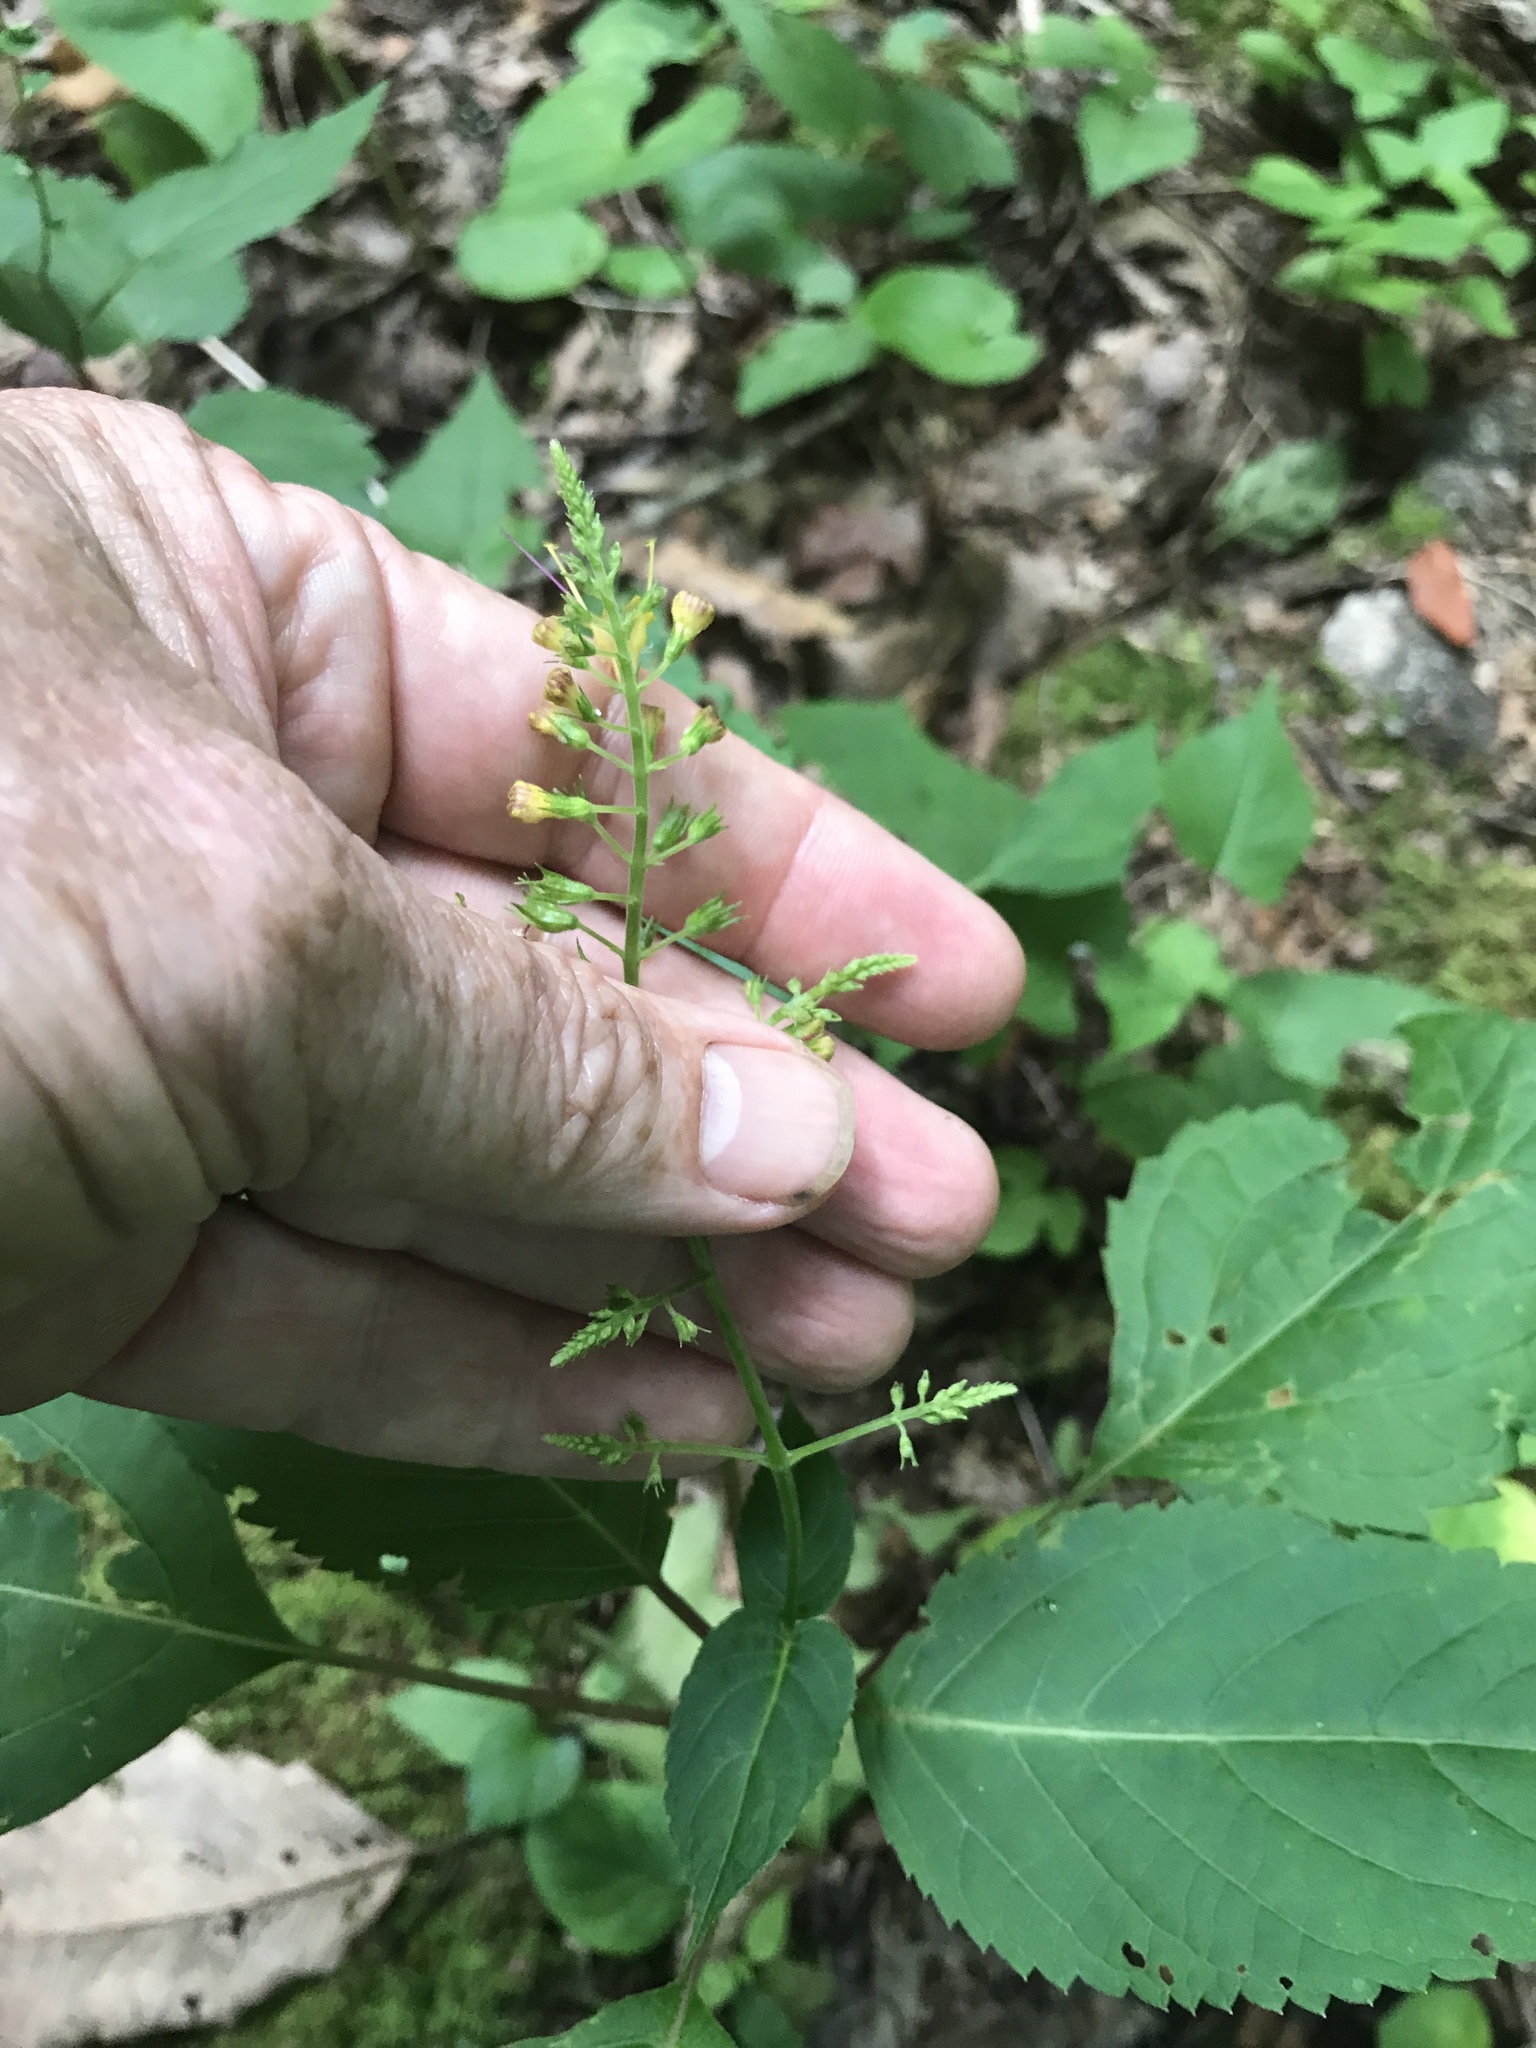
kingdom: Plantae
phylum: Tracheophyta
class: Magnoliopsida
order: Lamiales
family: Lamiaceae
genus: Collinsonia
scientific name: Collinsonia canadensis
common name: Northern horsebalm
